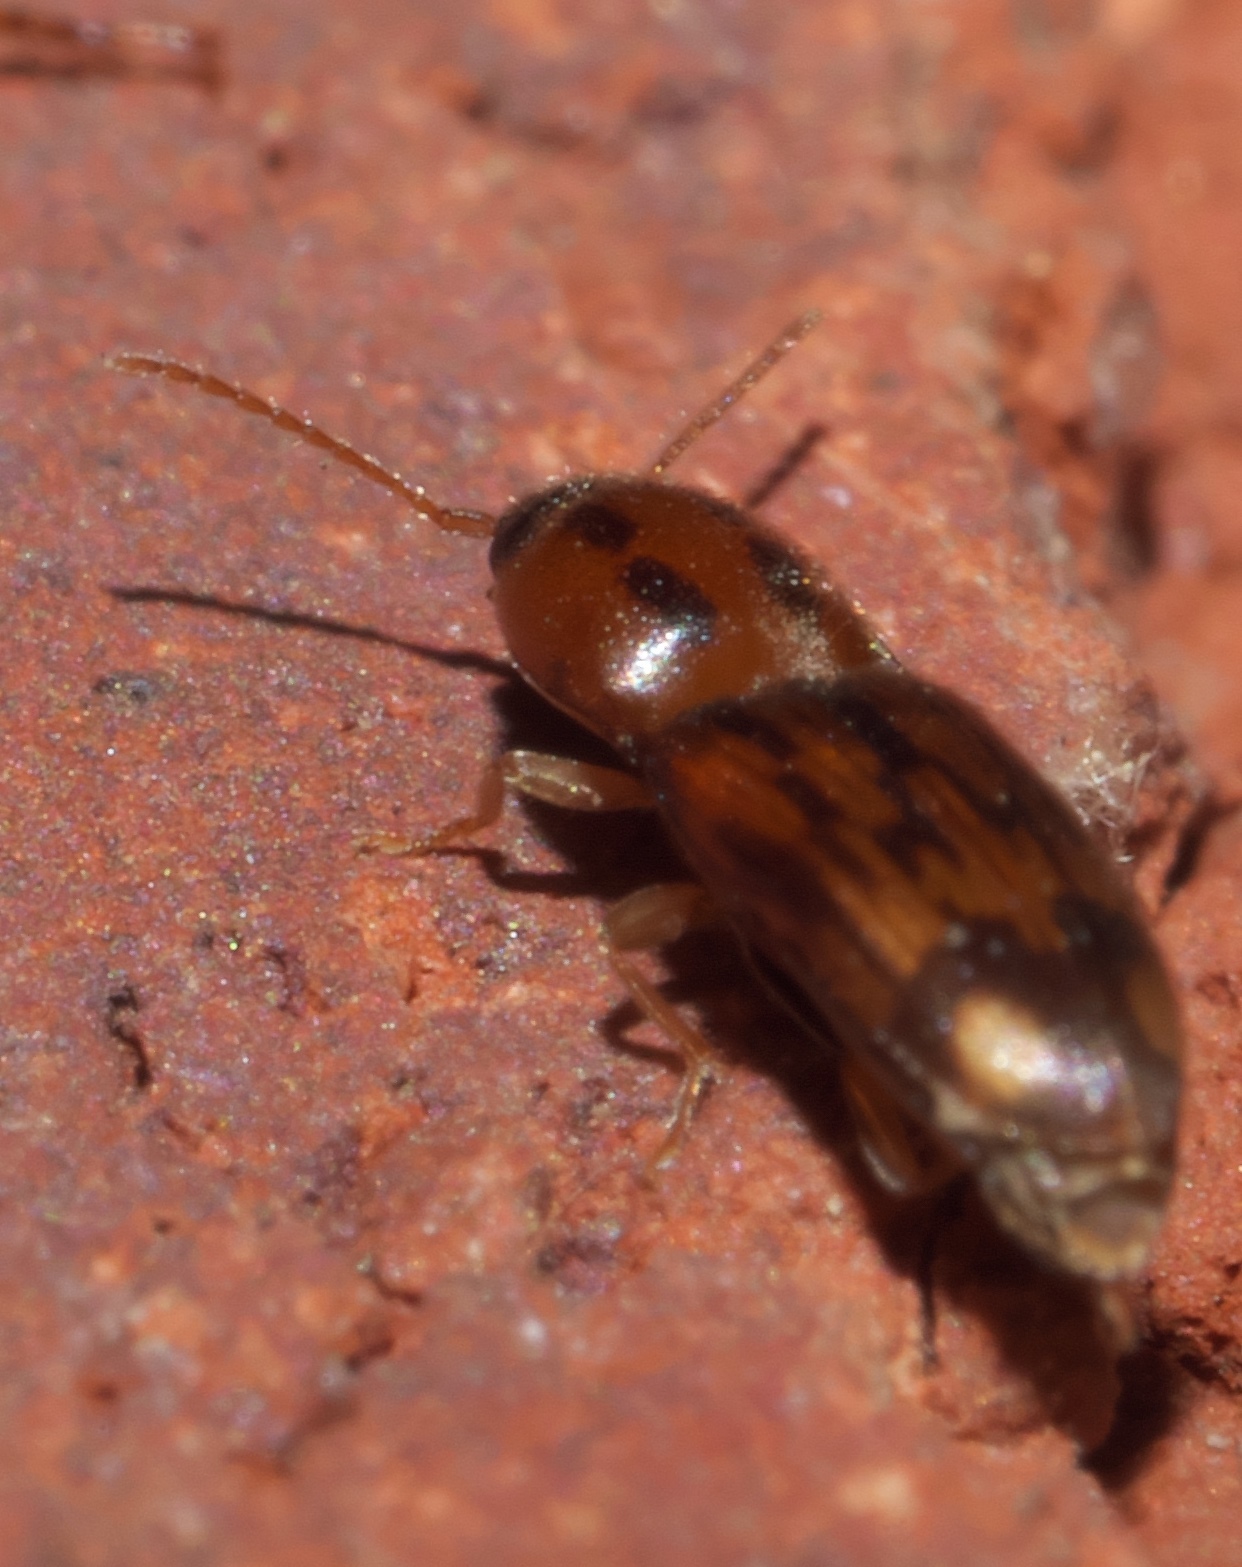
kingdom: Animalia
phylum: Arthropoda
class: Insecta
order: Coleoptera
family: Elateridae
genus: Monocrepidius
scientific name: Monocrepidius bellus
